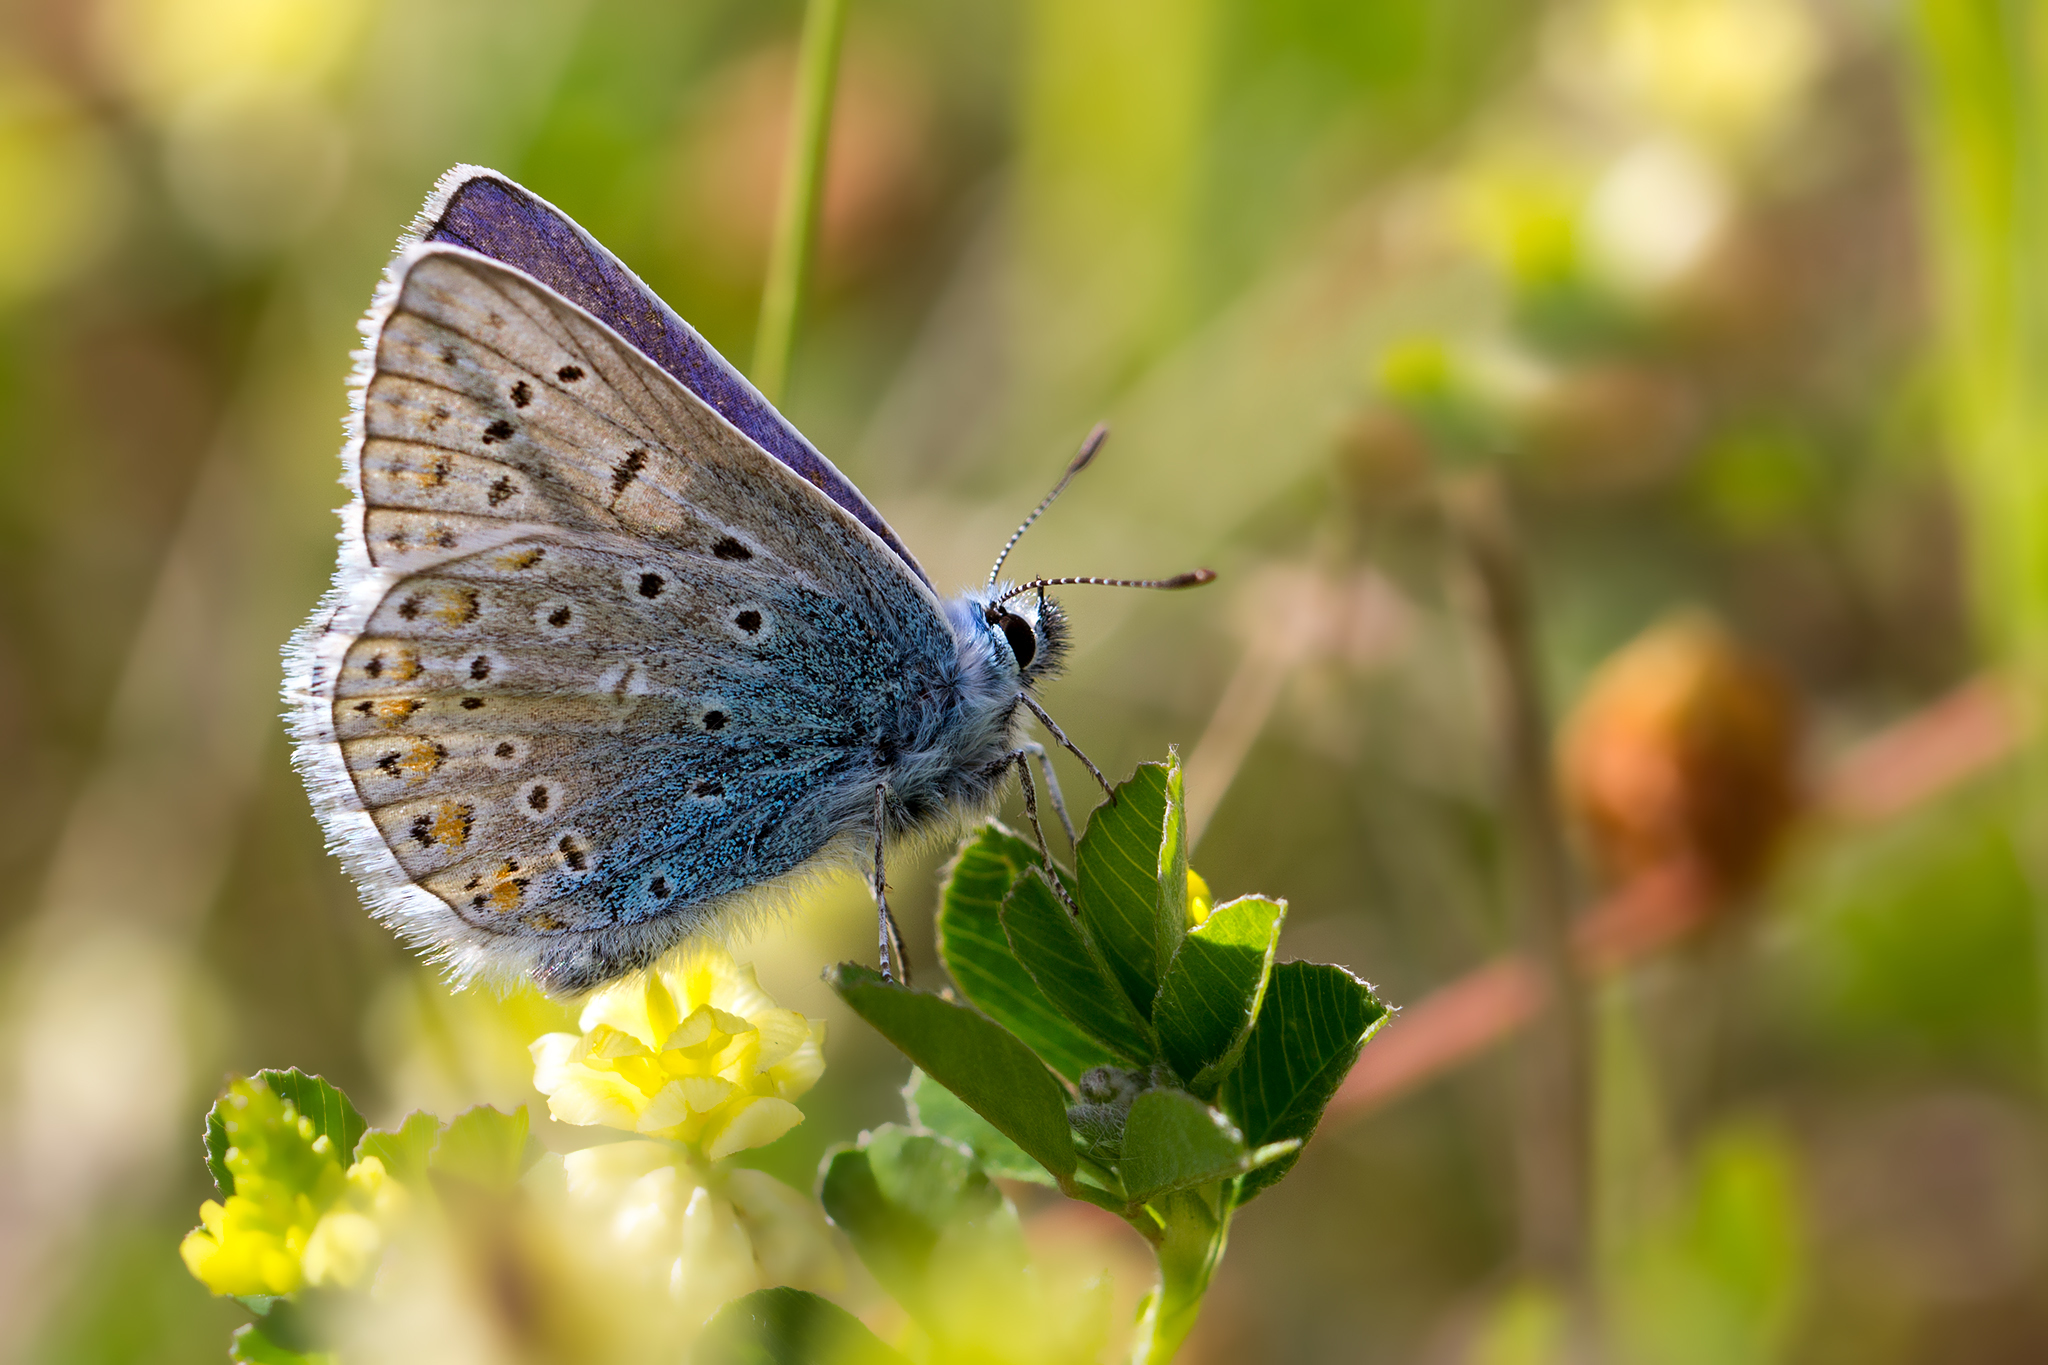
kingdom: Animalia
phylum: Arthropoda
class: Insecta
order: Lepidoptera
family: Lycaenidae
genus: Polyommatus
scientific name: Polyommatus icarus
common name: Common blue
